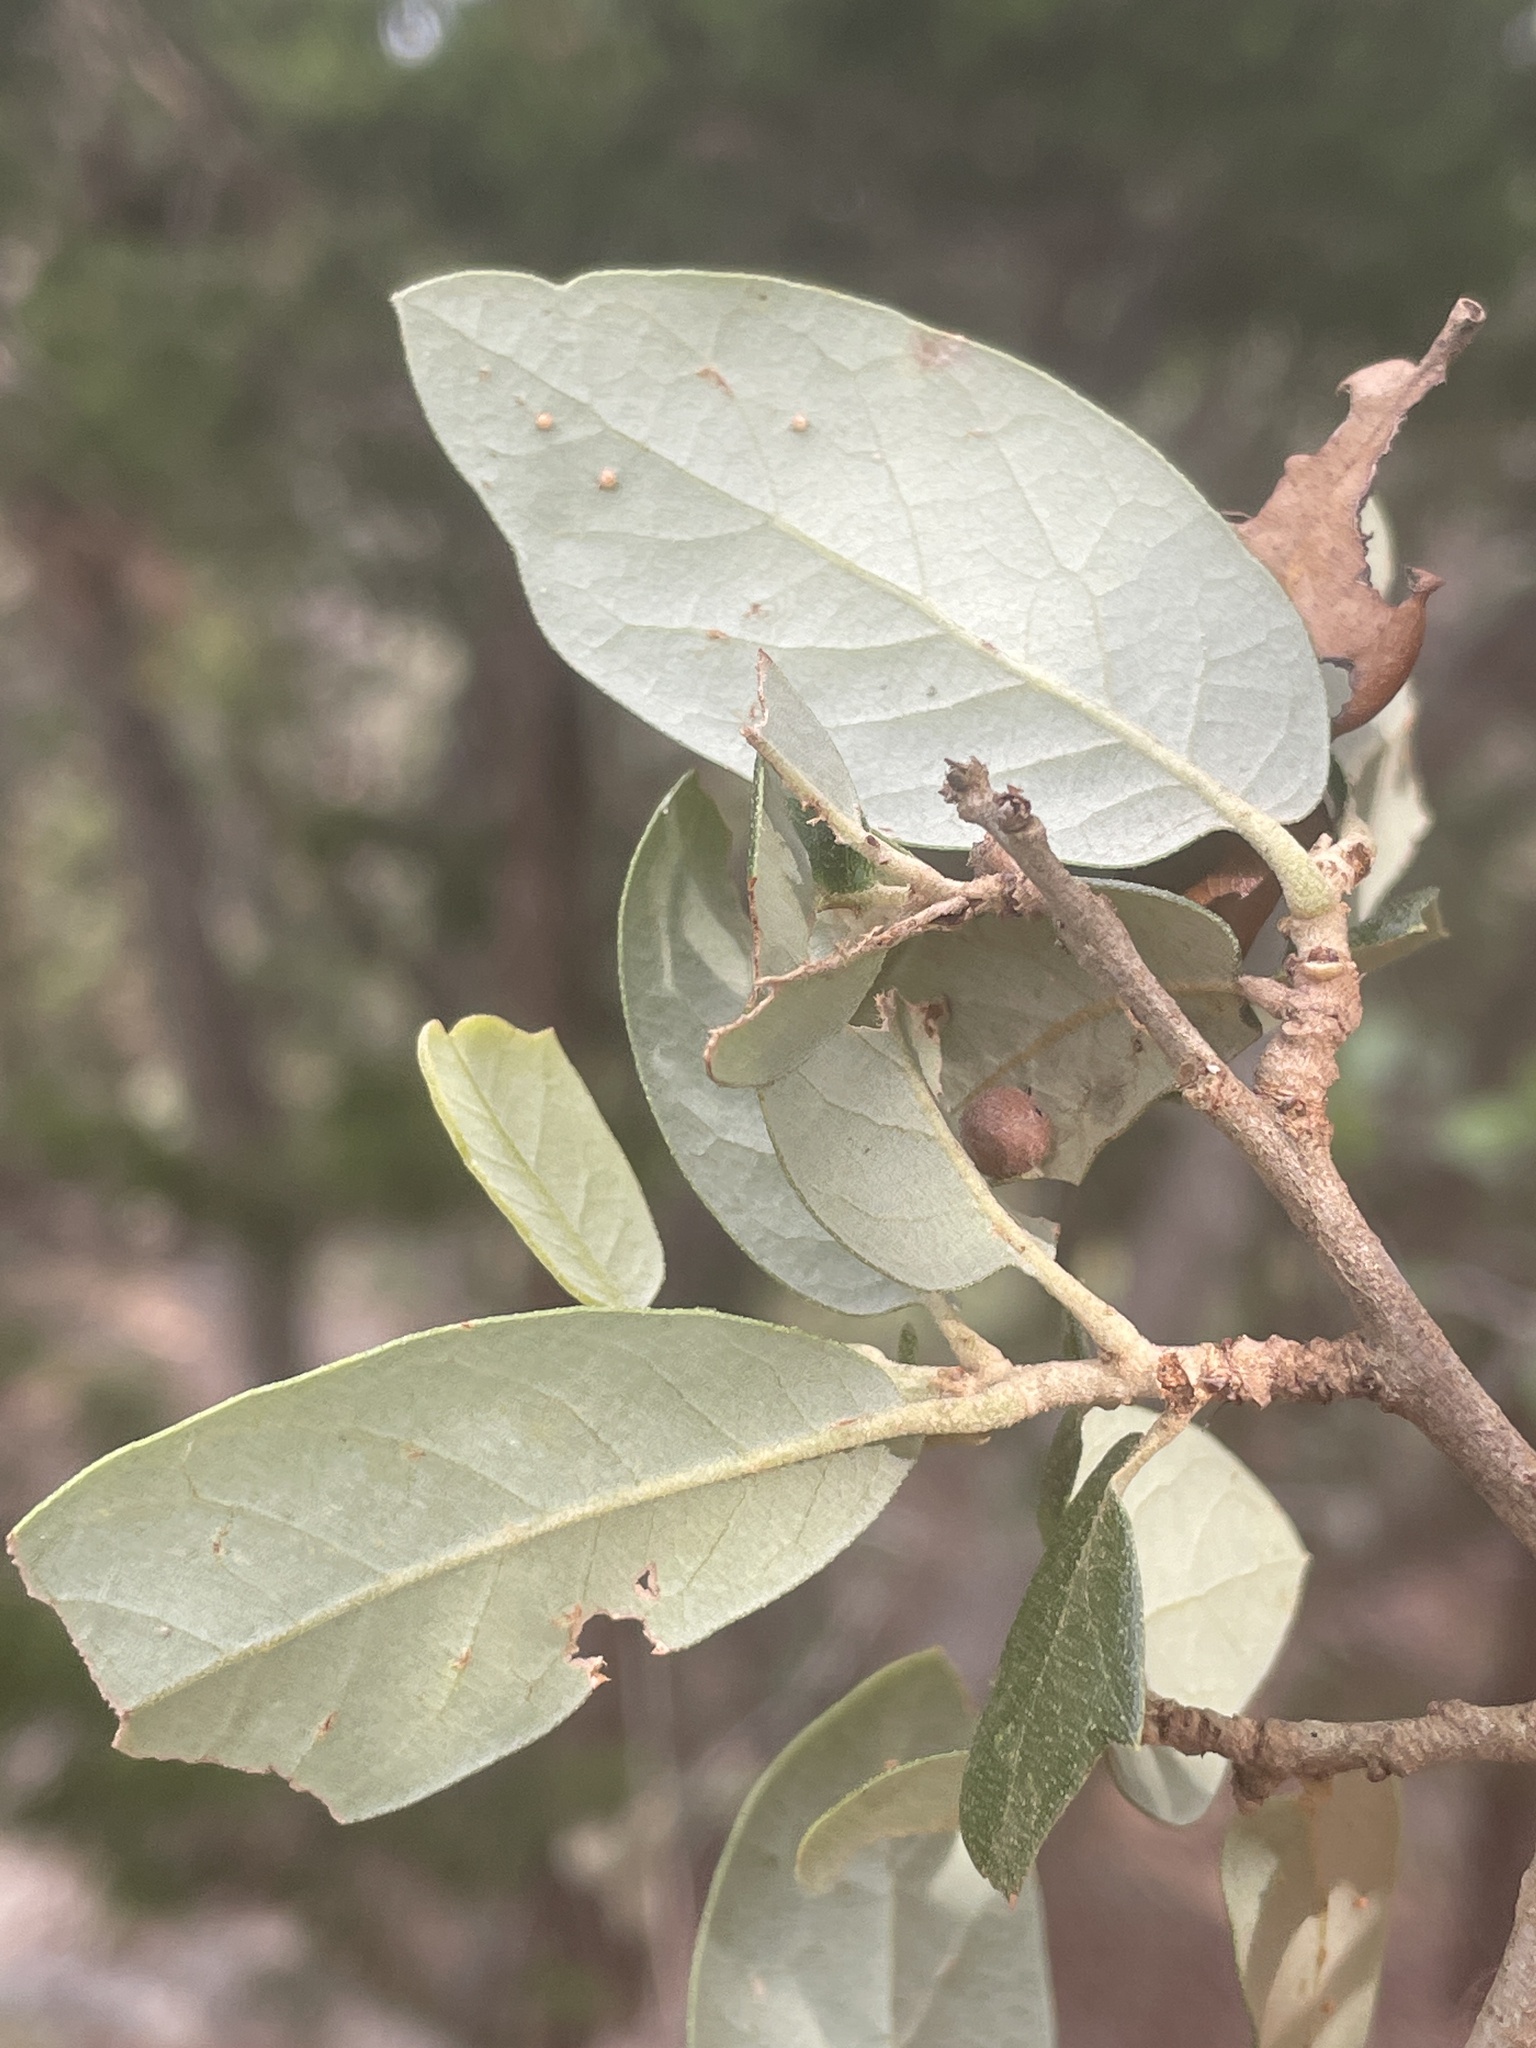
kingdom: Animalia
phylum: Arthropoda
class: Insecta
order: Hymenoptera
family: Cynipidae
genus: Belonocnema
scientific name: Belonocnema kinseyi
